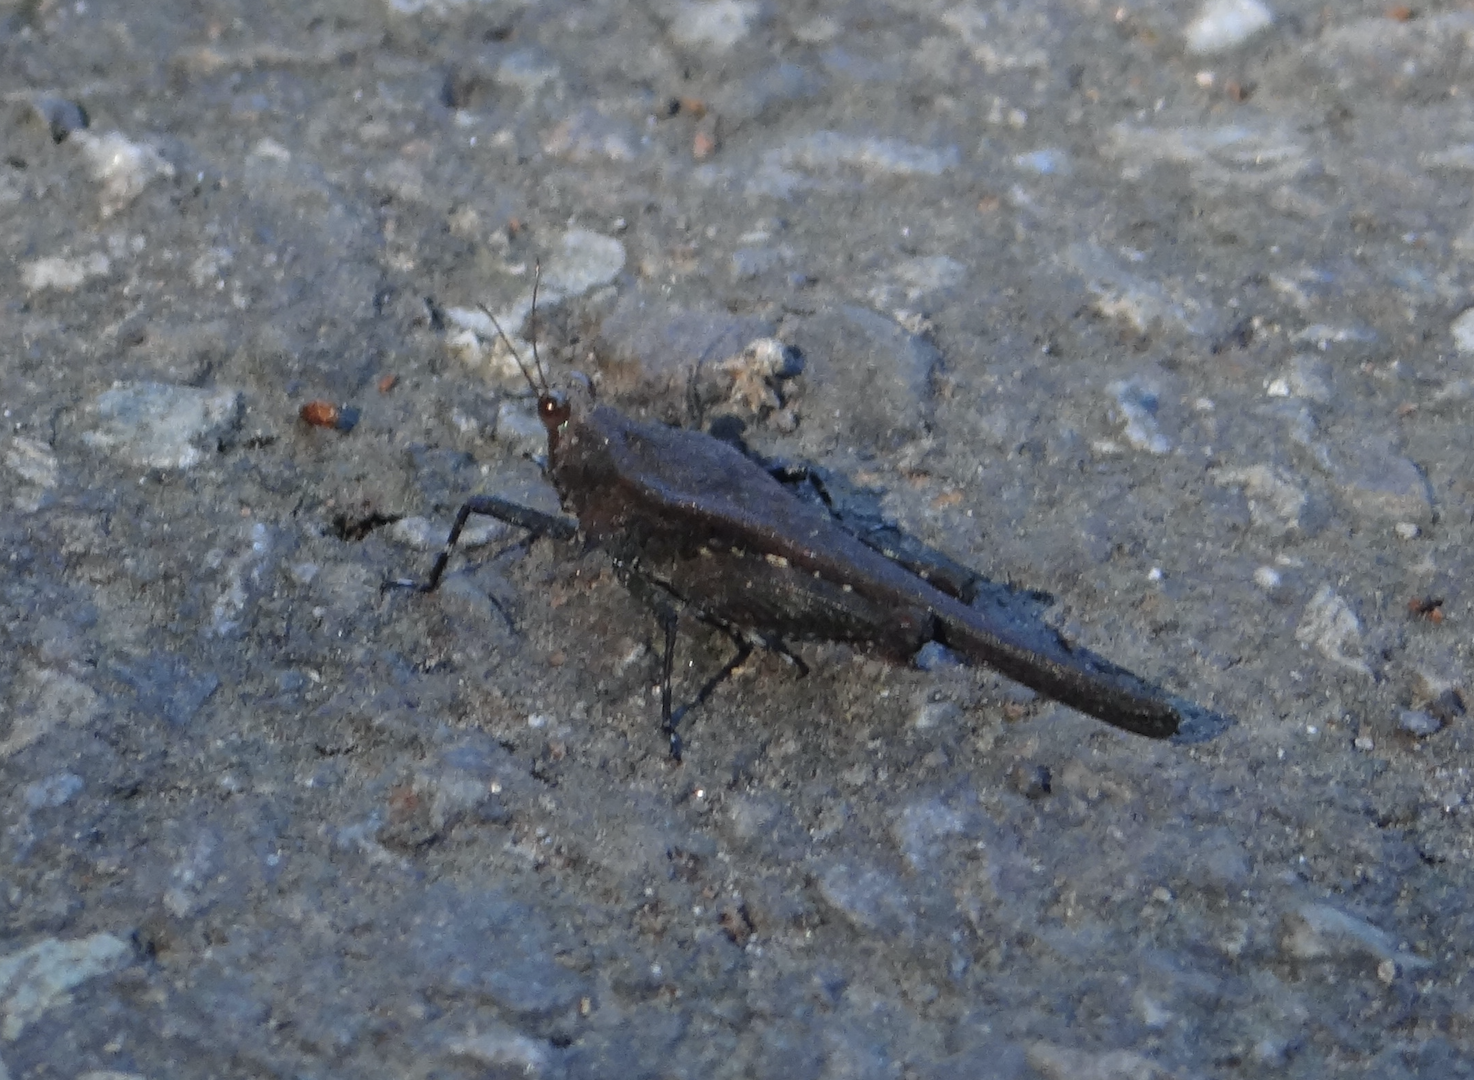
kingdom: Animalia
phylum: Arthropoda
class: Insecta
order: Orthoptera
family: Tetrigidae
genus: Criotettix
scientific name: Criotettix bispinosus
